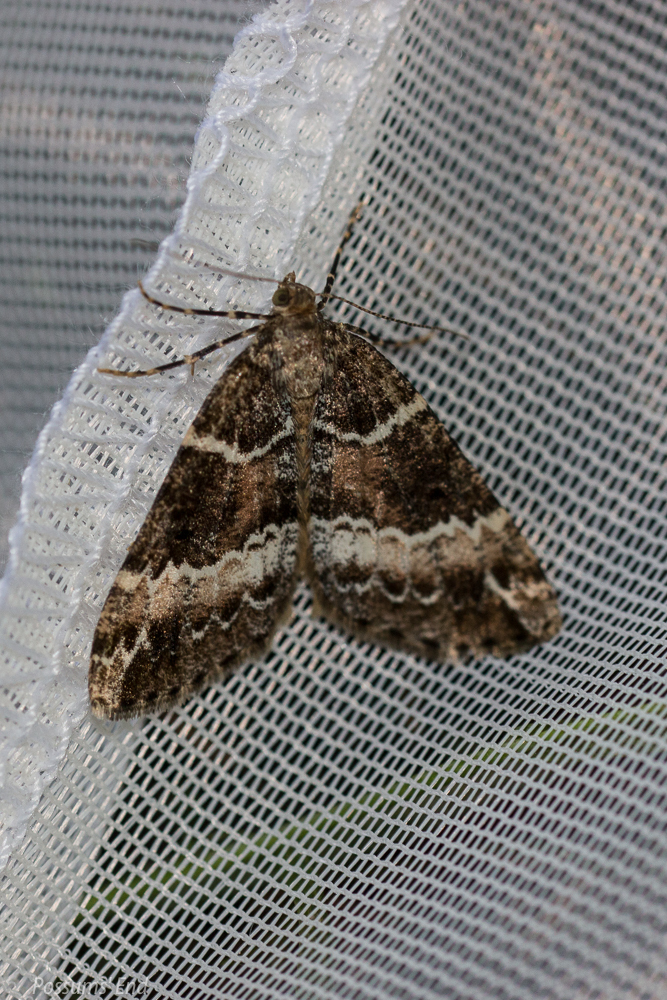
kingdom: Animalia
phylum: Arthropoda
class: Insecta
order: Lepidoptera
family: Geometridae
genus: Pseudocoremia
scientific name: Pseudocoremia
